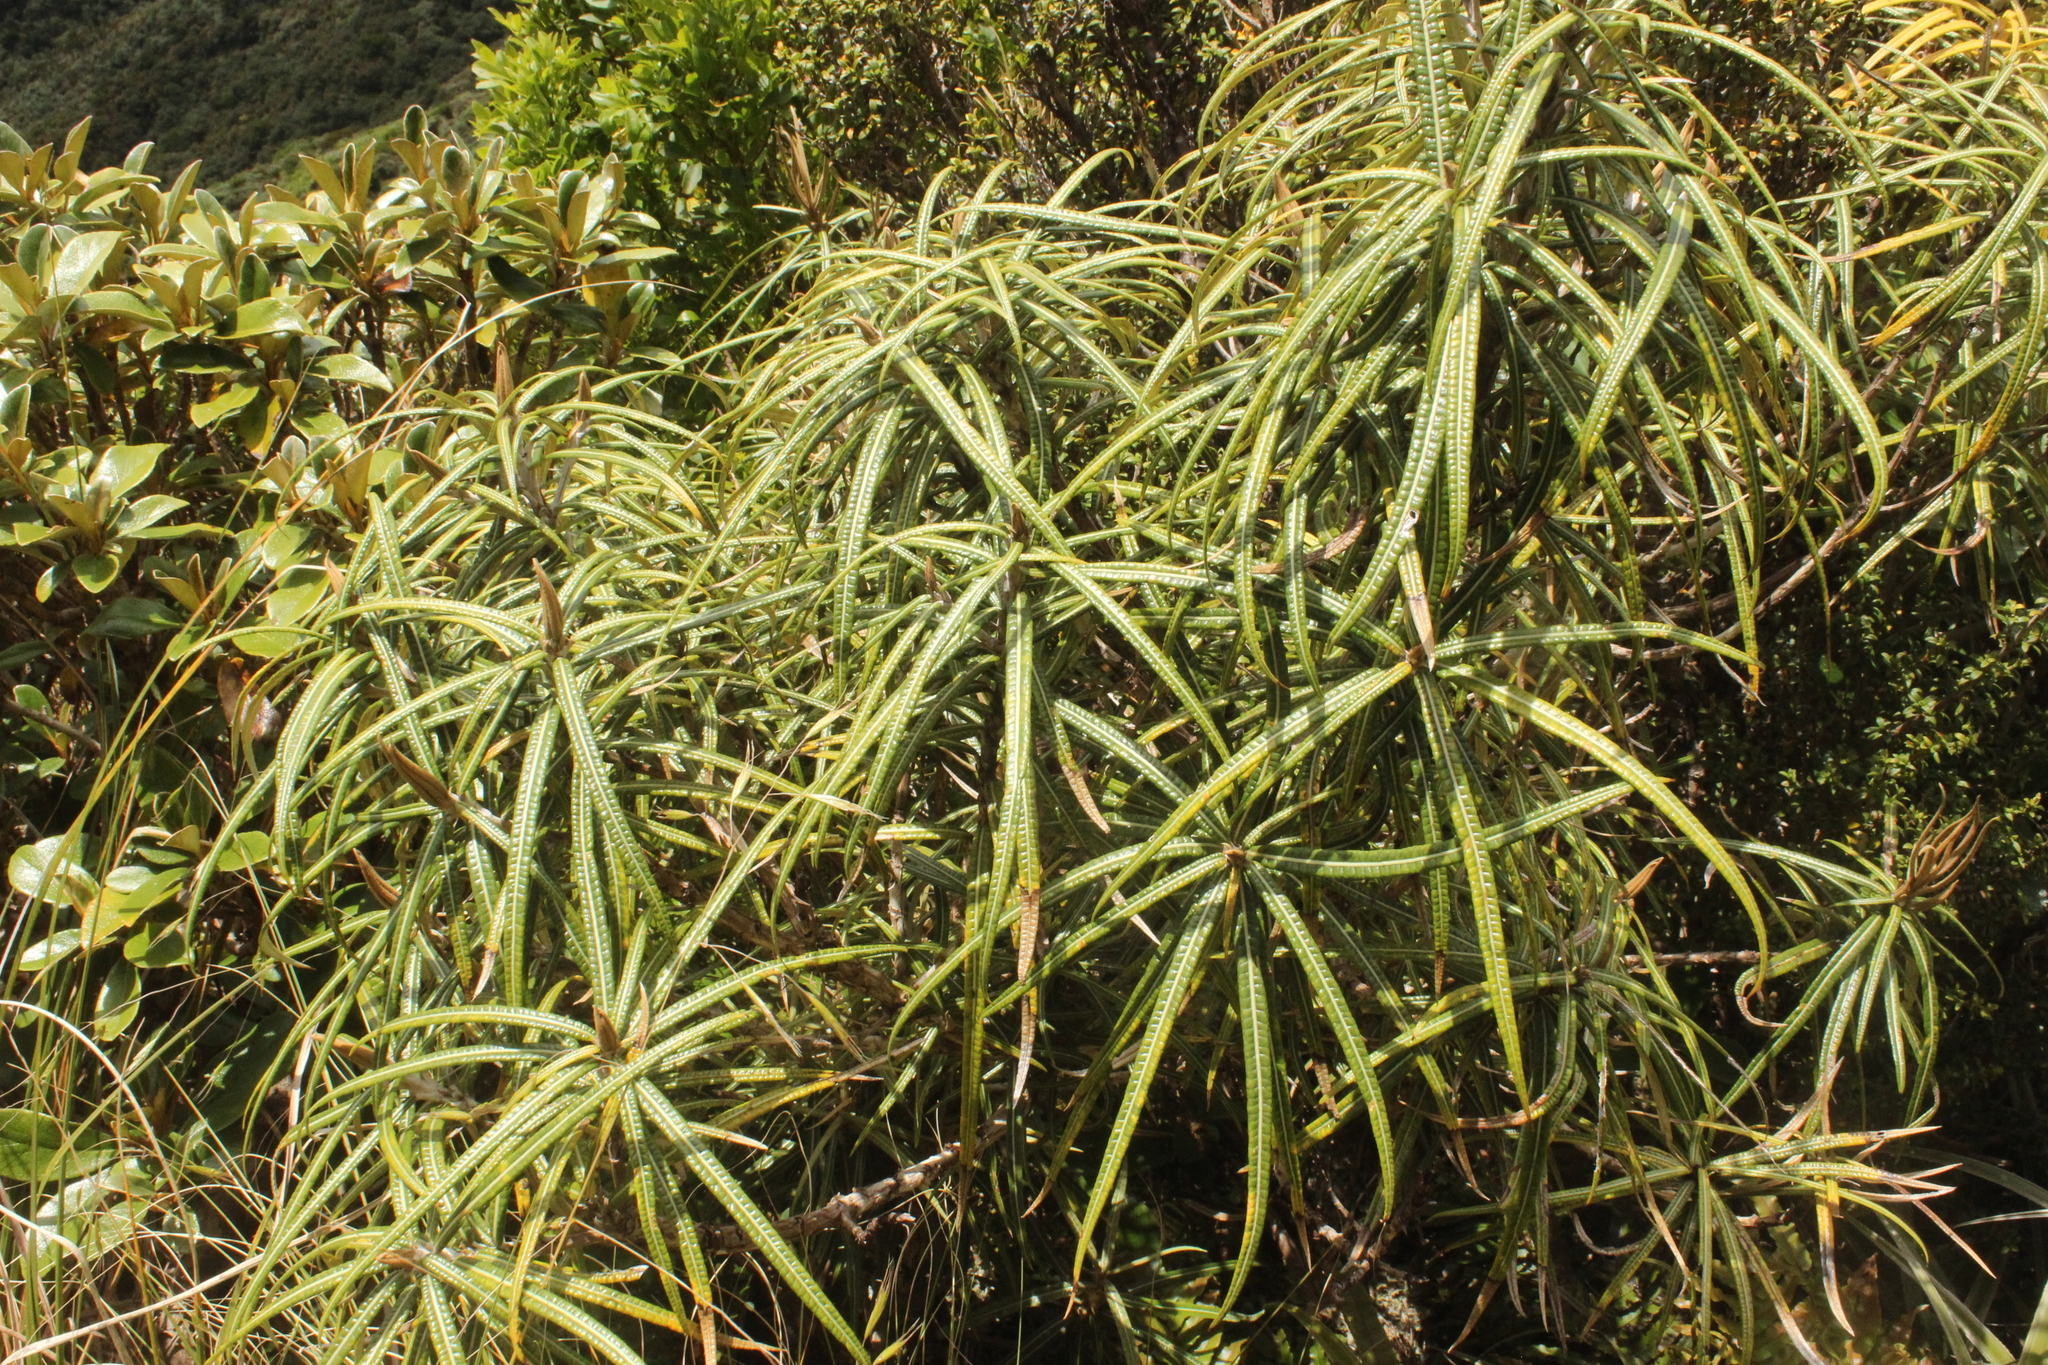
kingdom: Plantae
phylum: Tracheophyta
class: Magnoliopsida
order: Asterales
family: Asteraceae
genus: Olearia
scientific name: Olearia lacunosa
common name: Lancewood tree daisy
